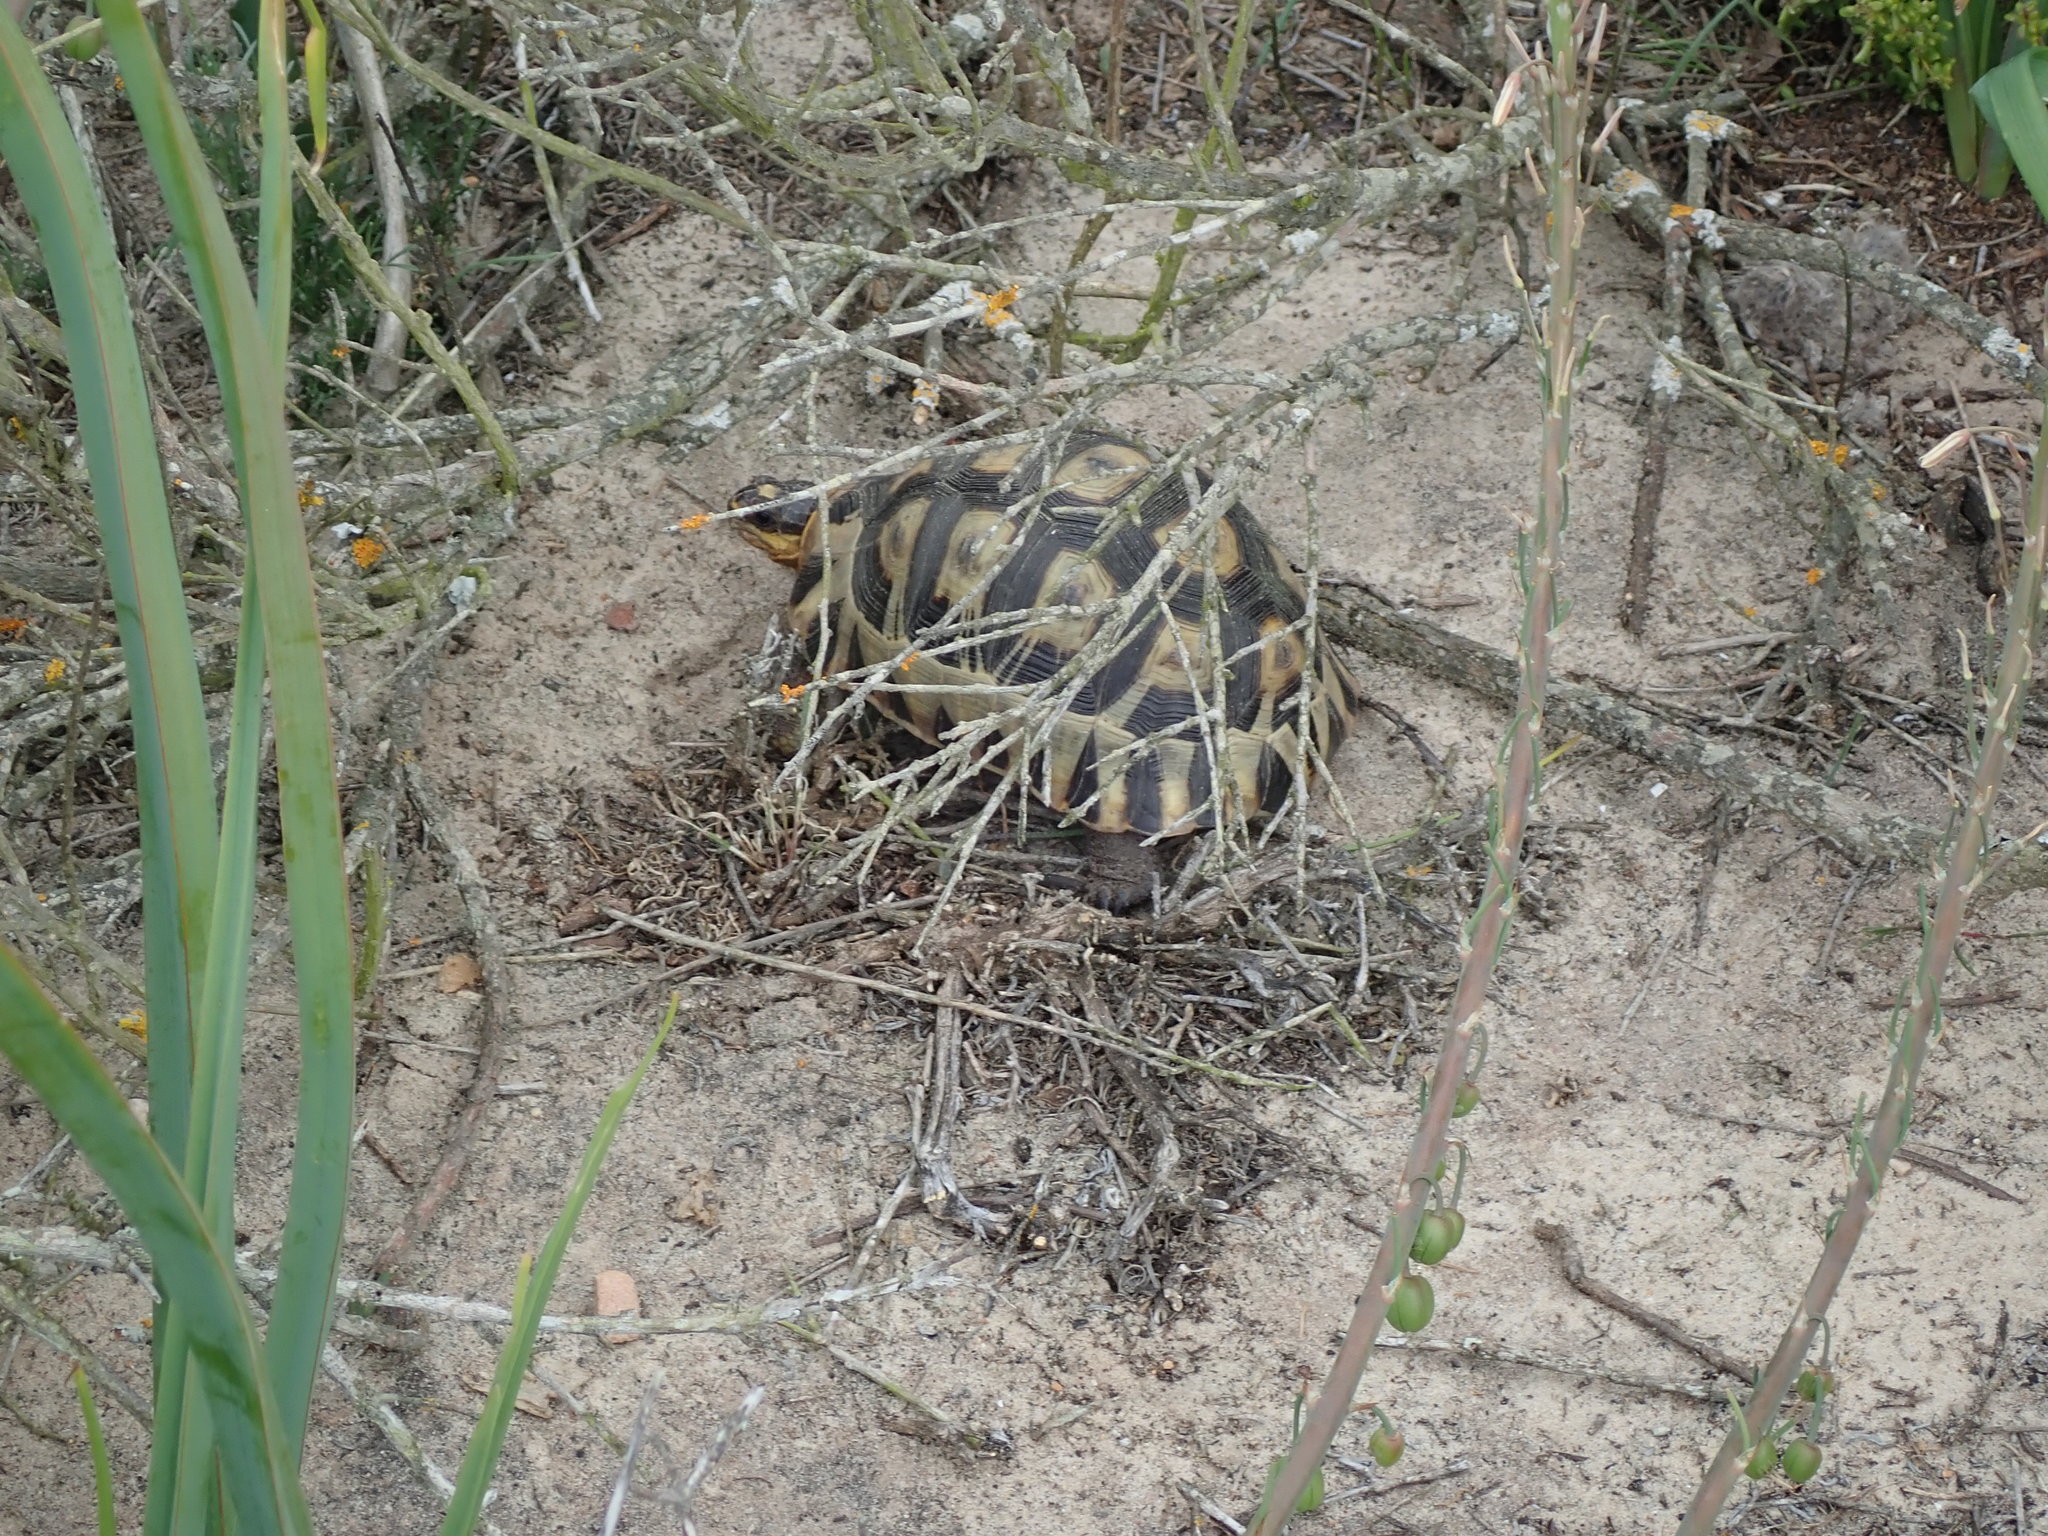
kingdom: Animalia
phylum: Chordata
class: Testudines
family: Testudinidae
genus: Chersina
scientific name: Chersina angulata
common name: South african bowsprit tortoise
